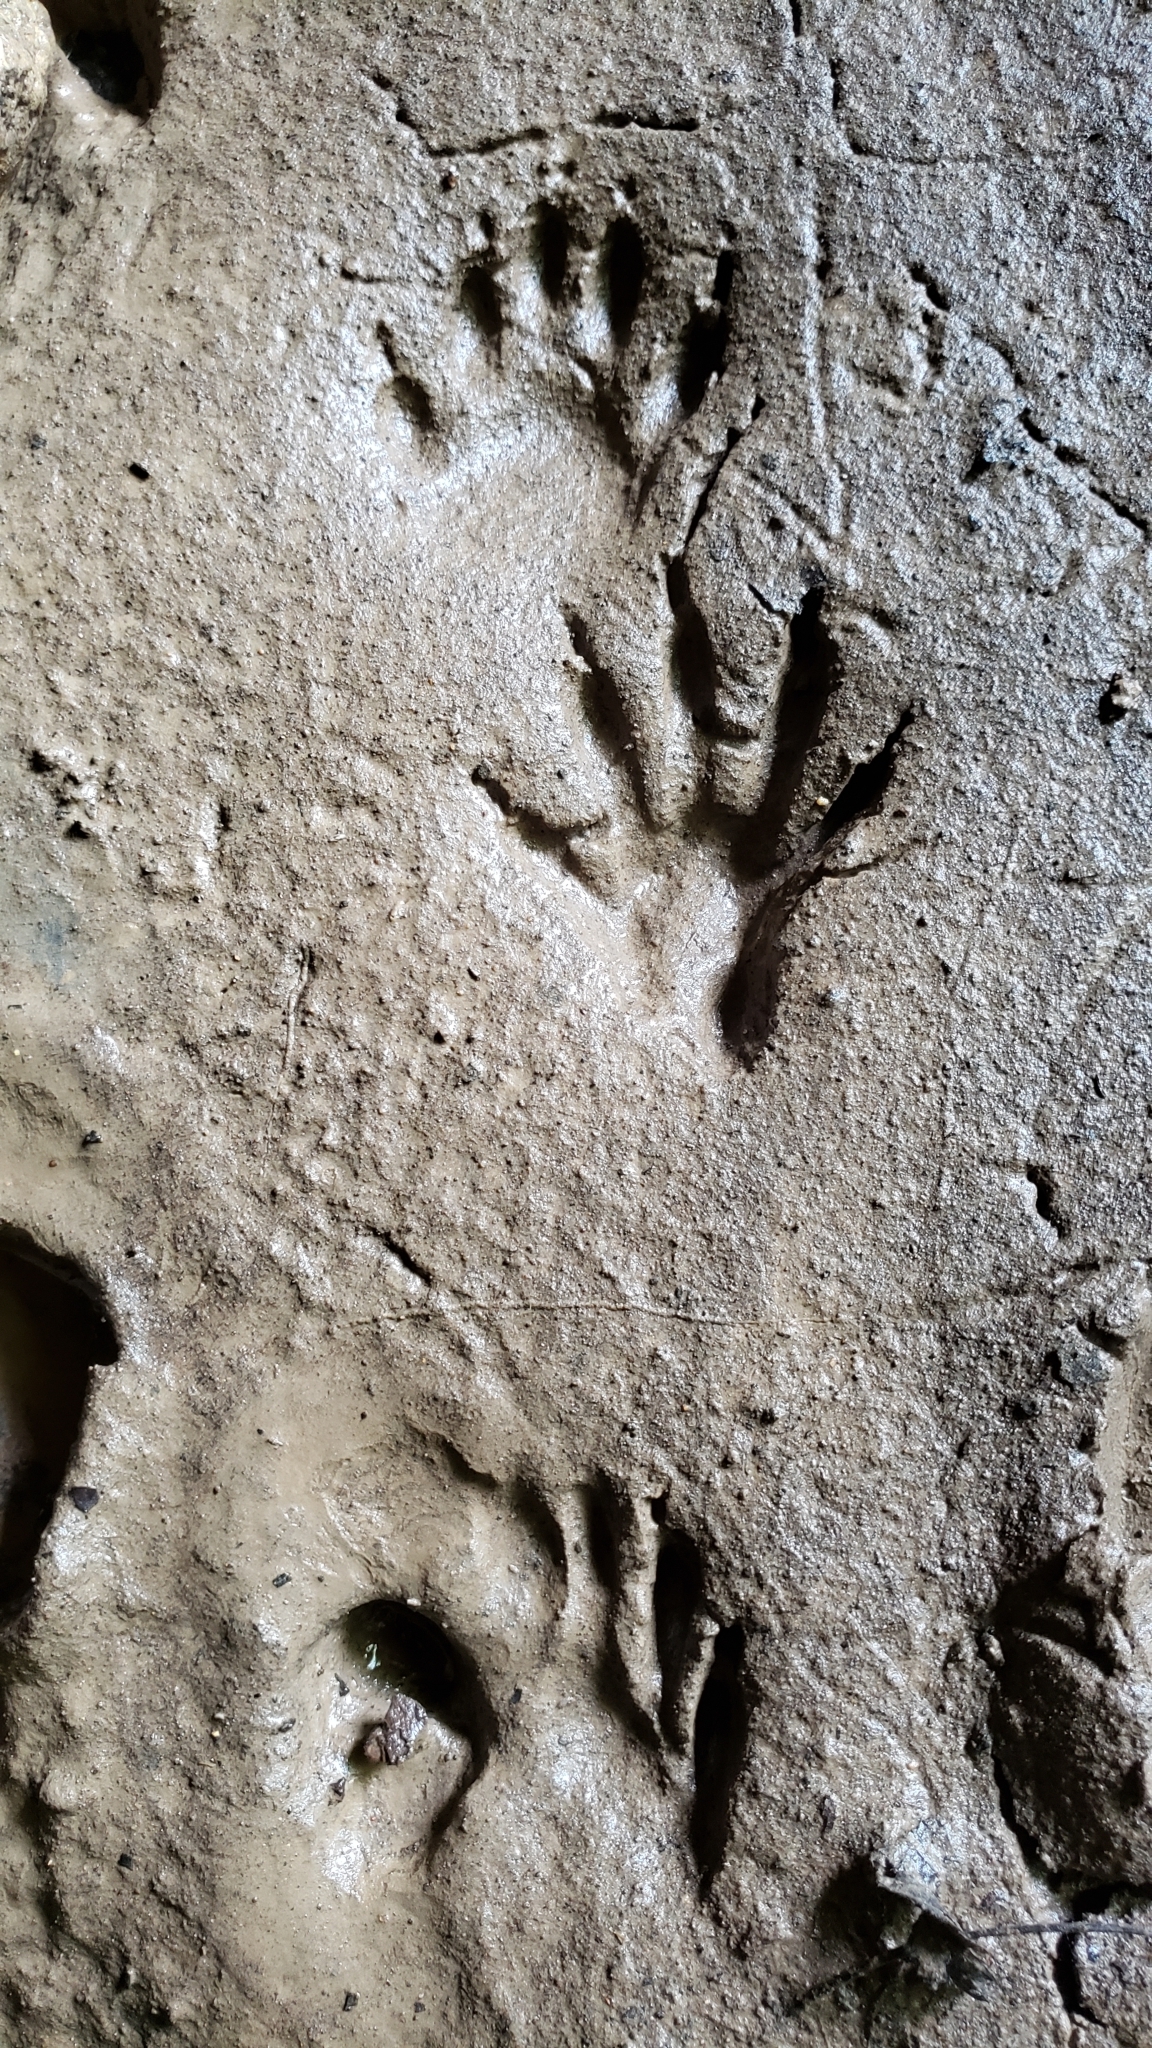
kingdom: Animalia
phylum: Chordata
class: Mammalia
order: Carnivora
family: Procyonidae
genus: Procyon
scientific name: Procyon lotor
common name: Raccoon
